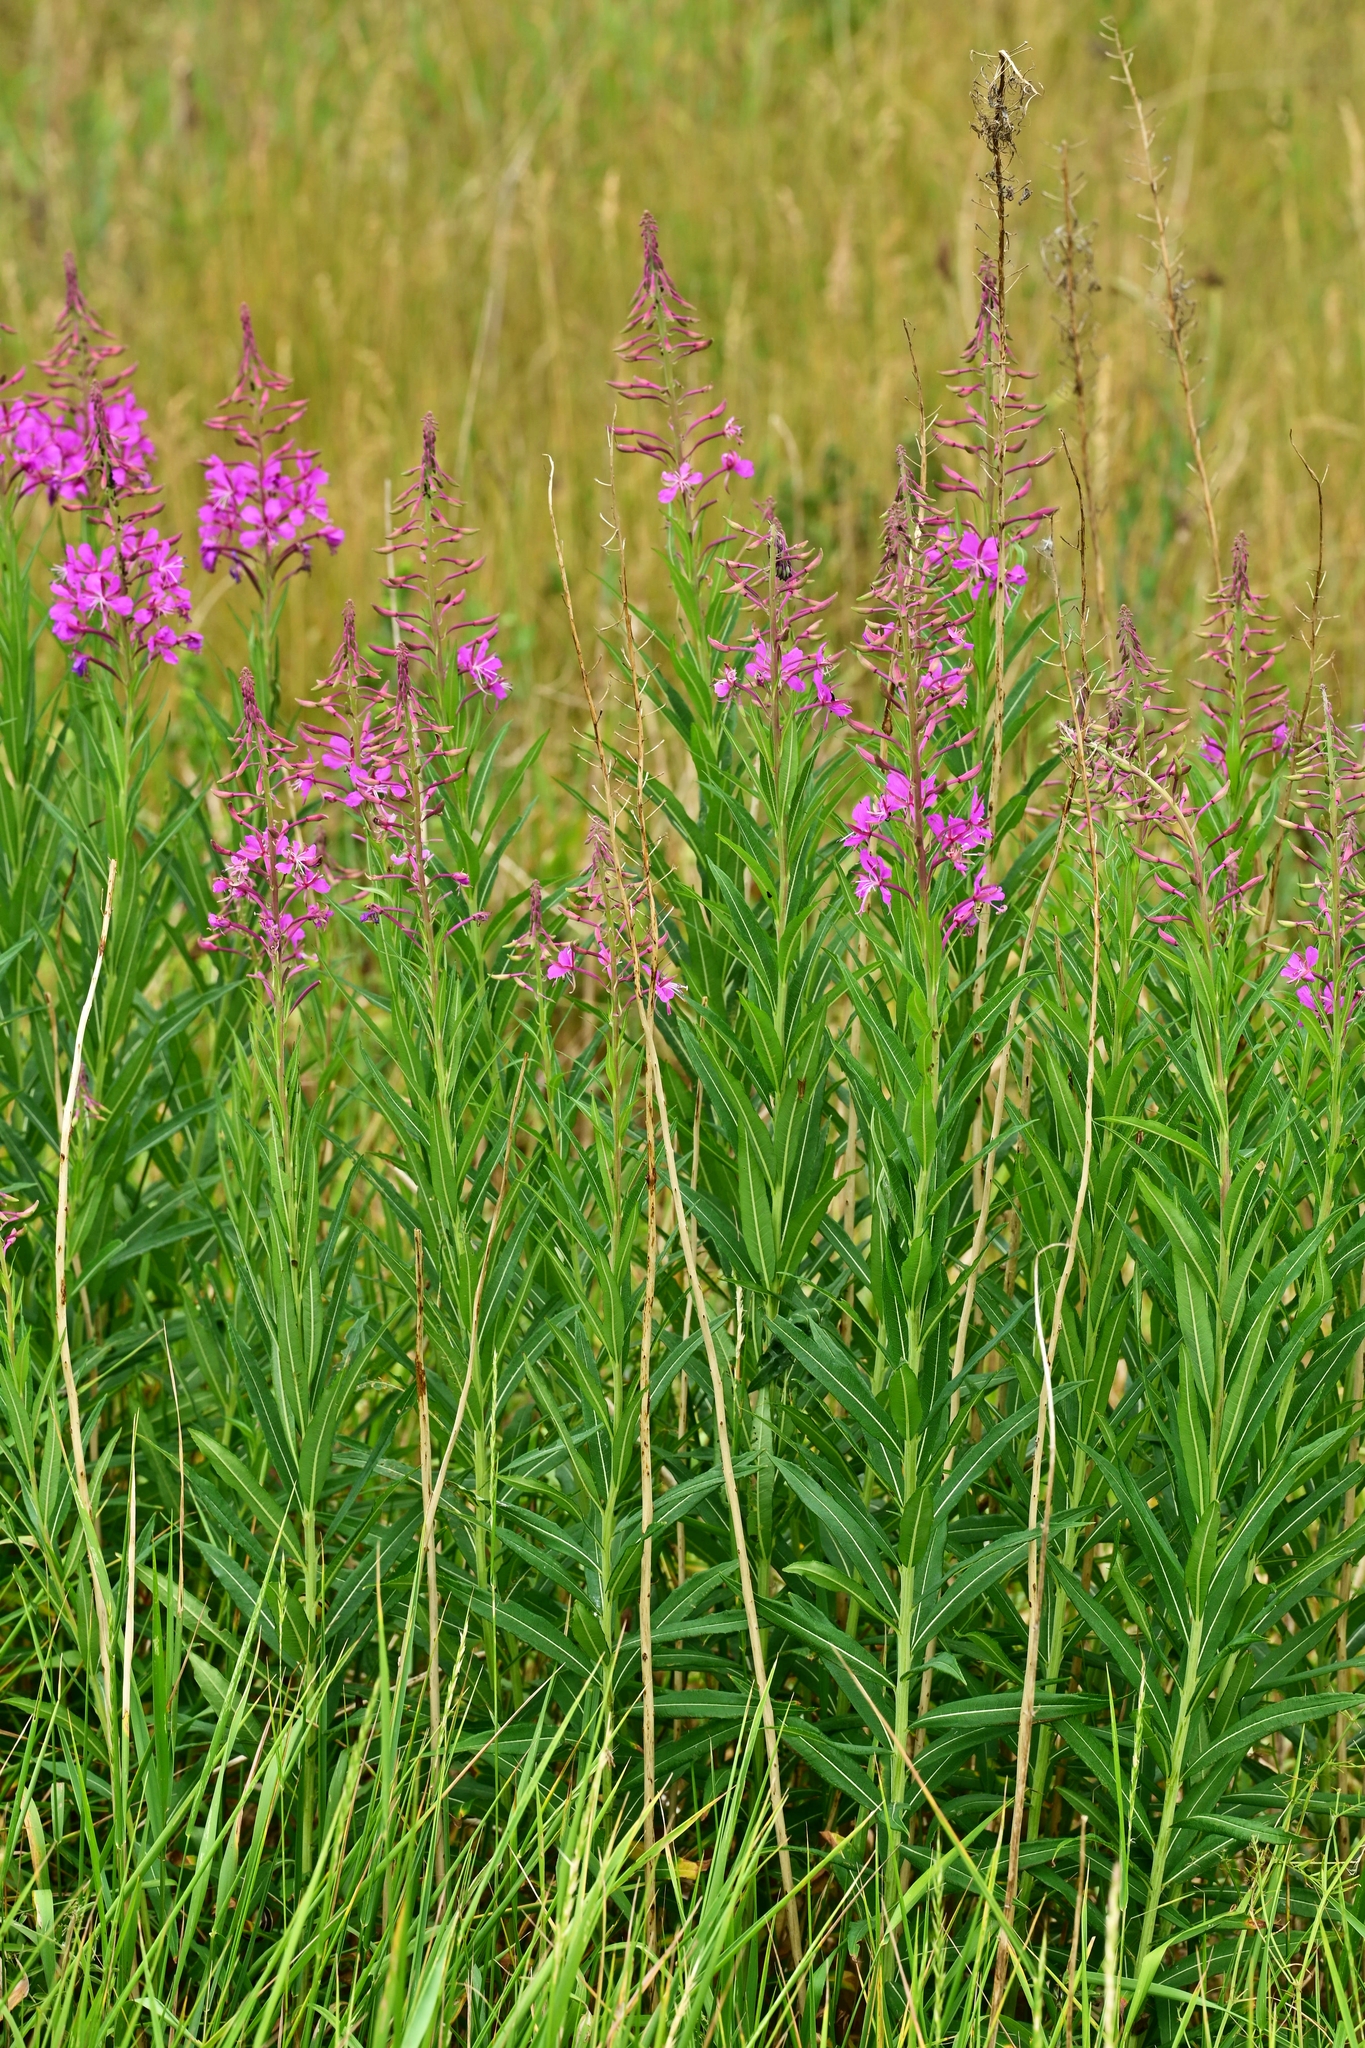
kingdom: Plantae
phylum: Tracheophyta
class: Magnoliopsida
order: Myrtales
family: Onagraceae
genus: Chamaenerion
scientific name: Chamaenerion angustifolium
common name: Fireweed
